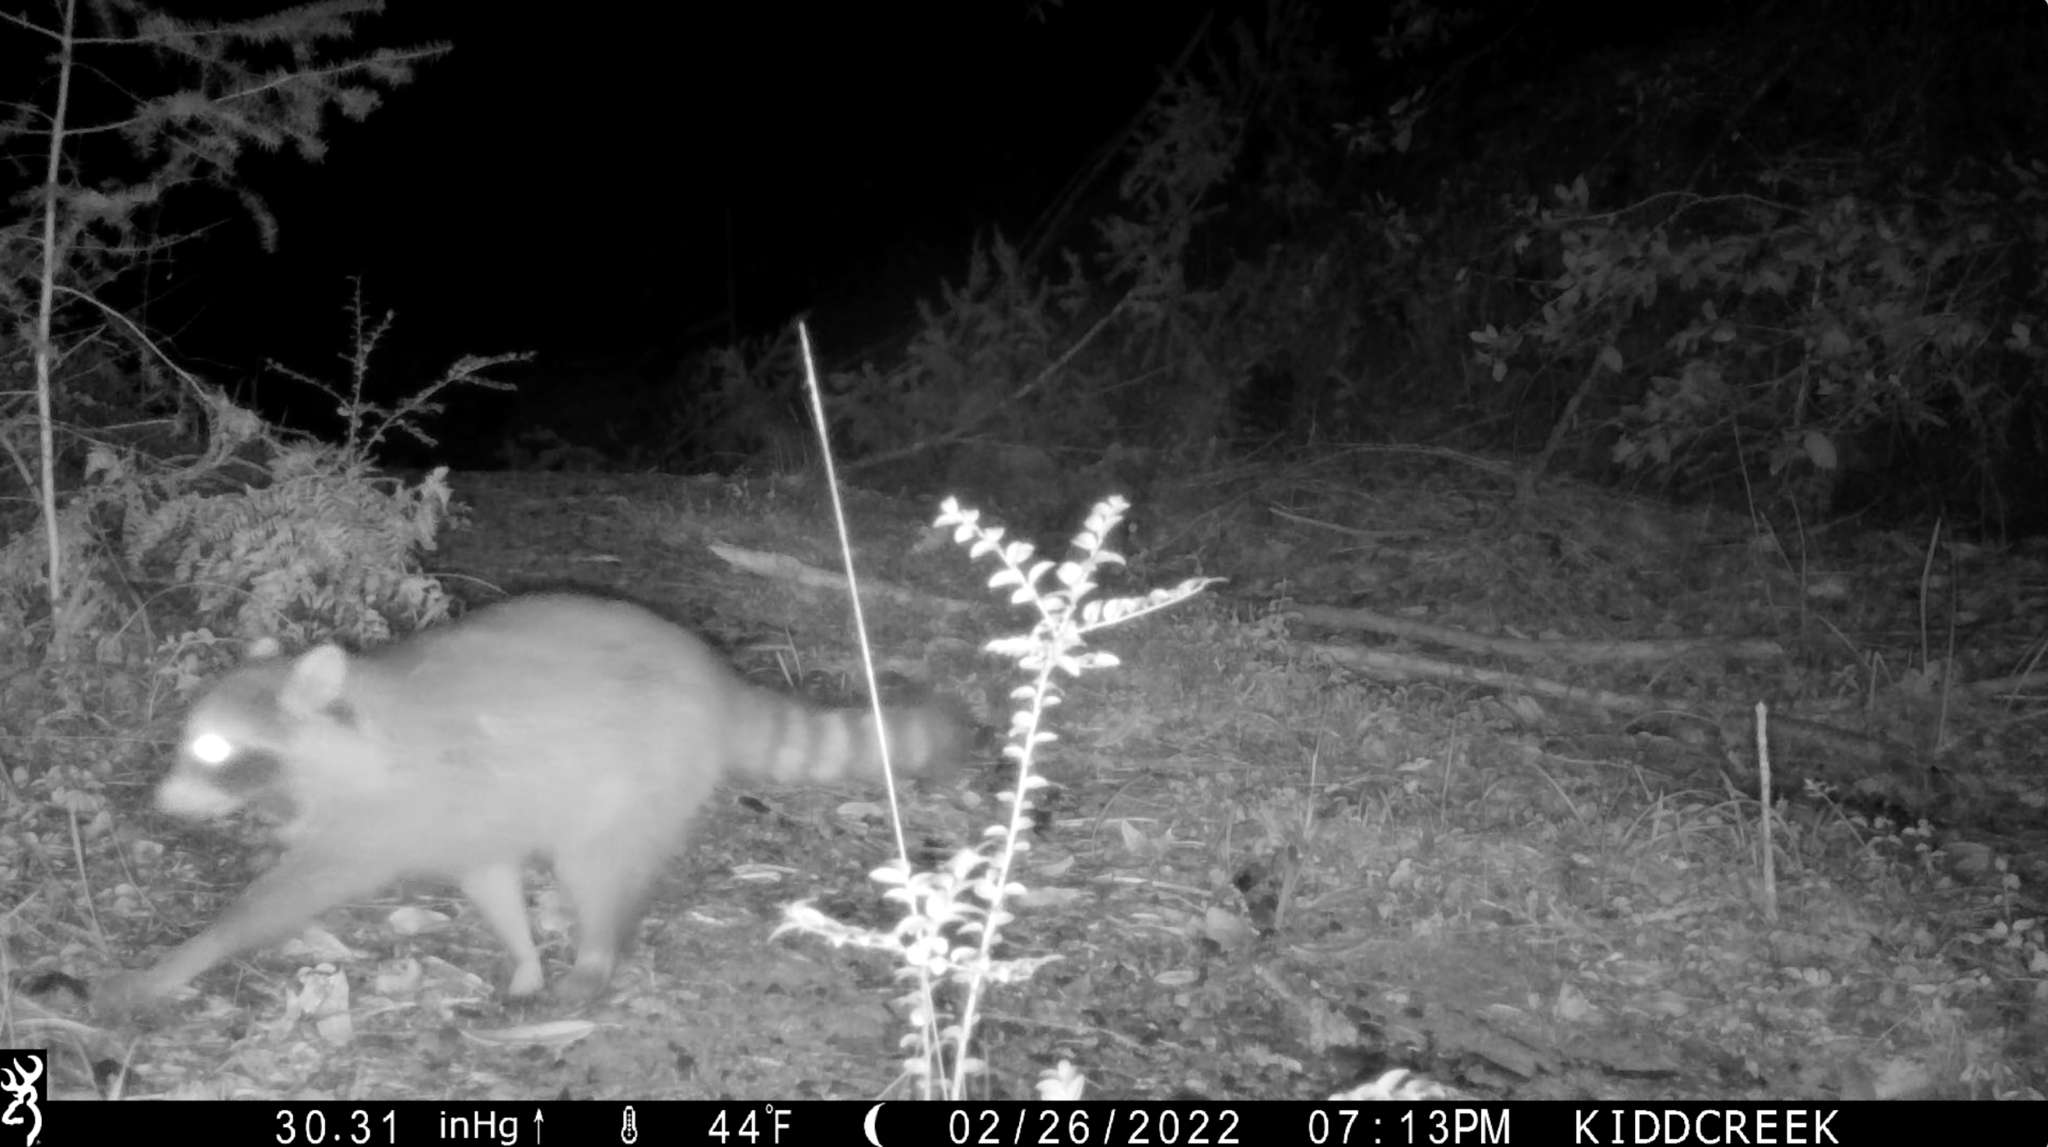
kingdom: Animalia
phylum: Chordata
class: Mammalia
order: Carnivora
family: Procyonidae
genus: Procyon
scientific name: Procyon lotor
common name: Raccoon
